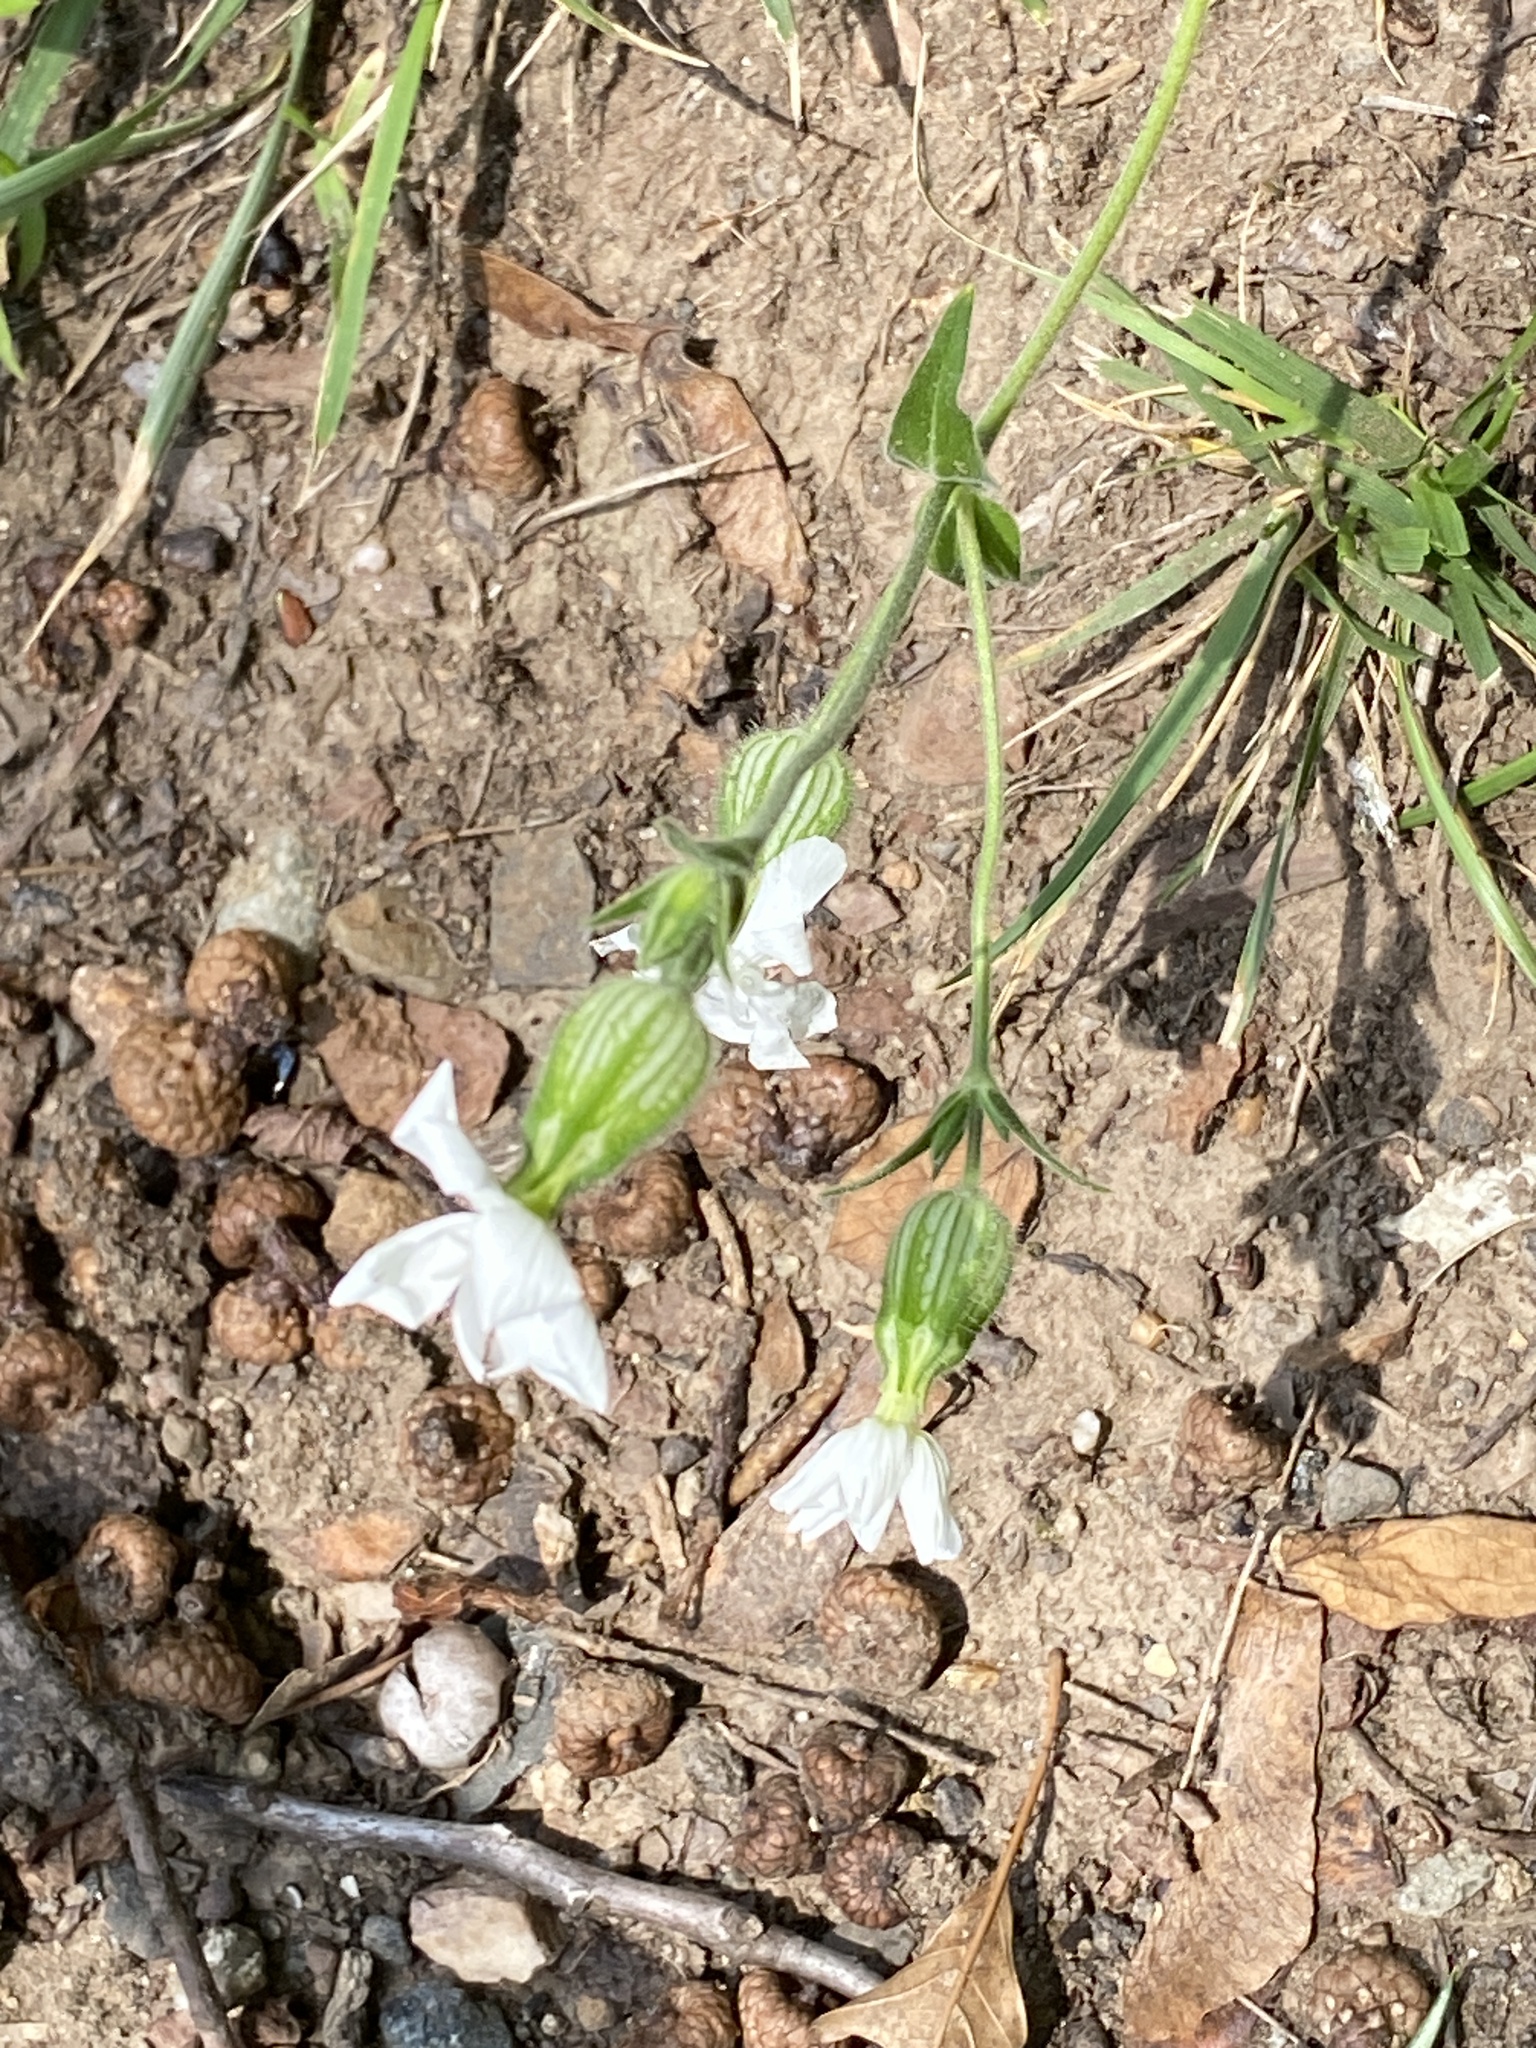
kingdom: Plantae
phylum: Tracheophyta
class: Magnoliopsida
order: Caryophyllales
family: Caryophyllaceae
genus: Silene
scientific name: Silene latifolia
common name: White campion
